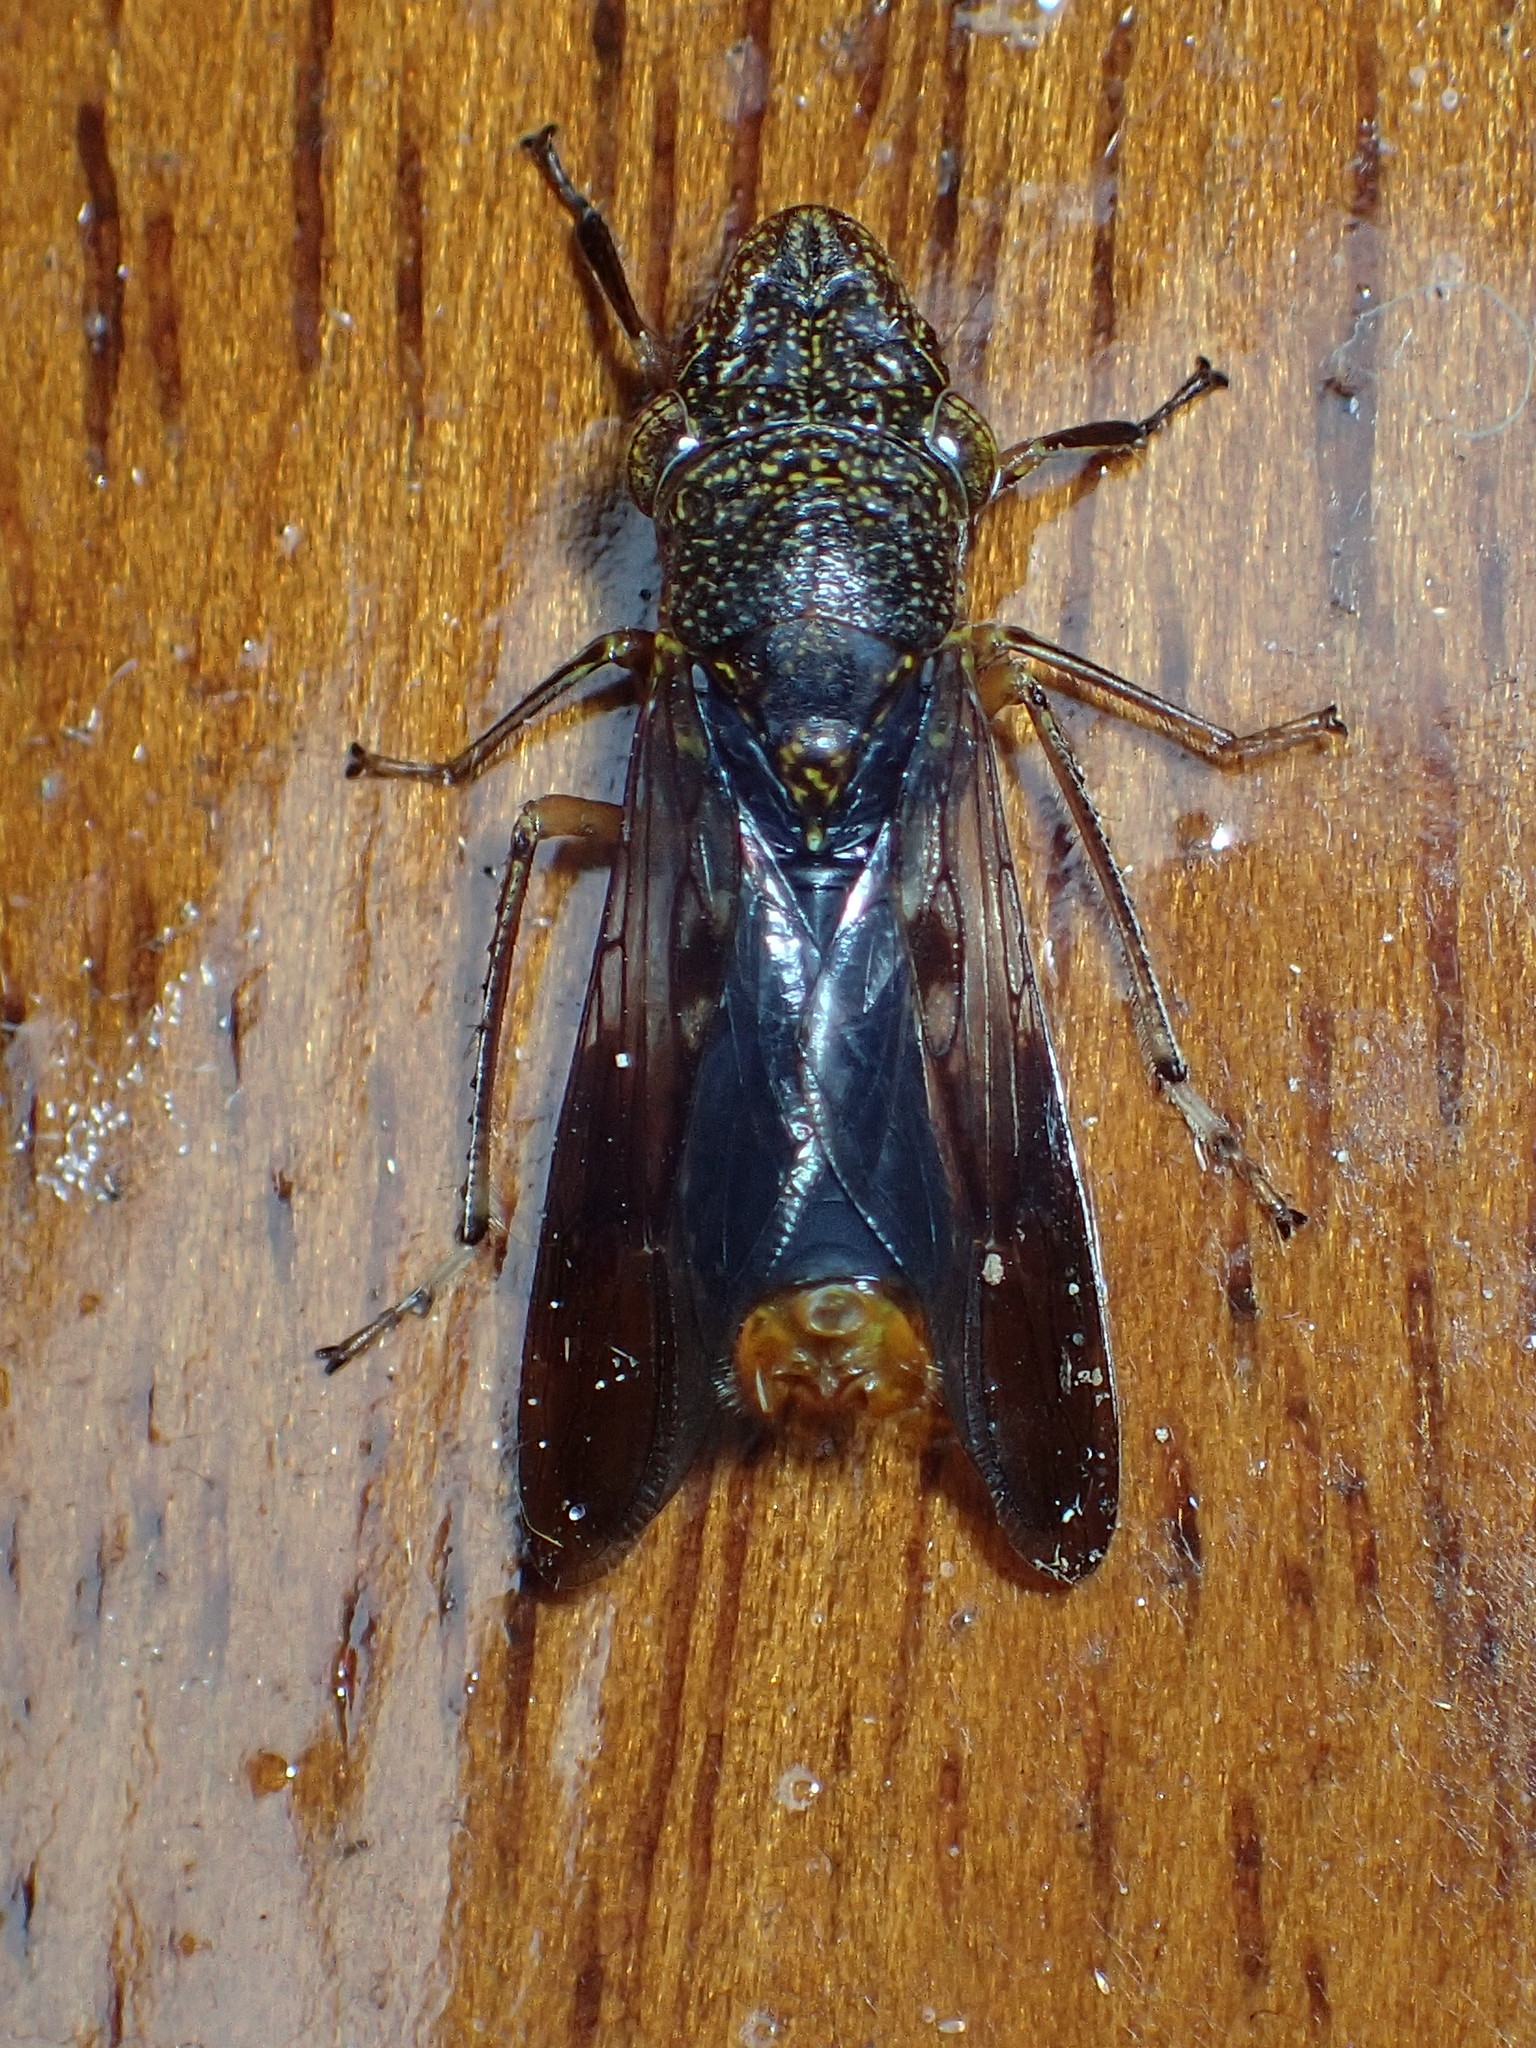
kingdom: Animalia
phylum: Arthropoda
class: Insecta
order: Hemiptera
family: Cicadellidae
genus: Homalodisca
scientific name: Homalodisca vitripennis
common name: Glassy-winged sharpshooter
